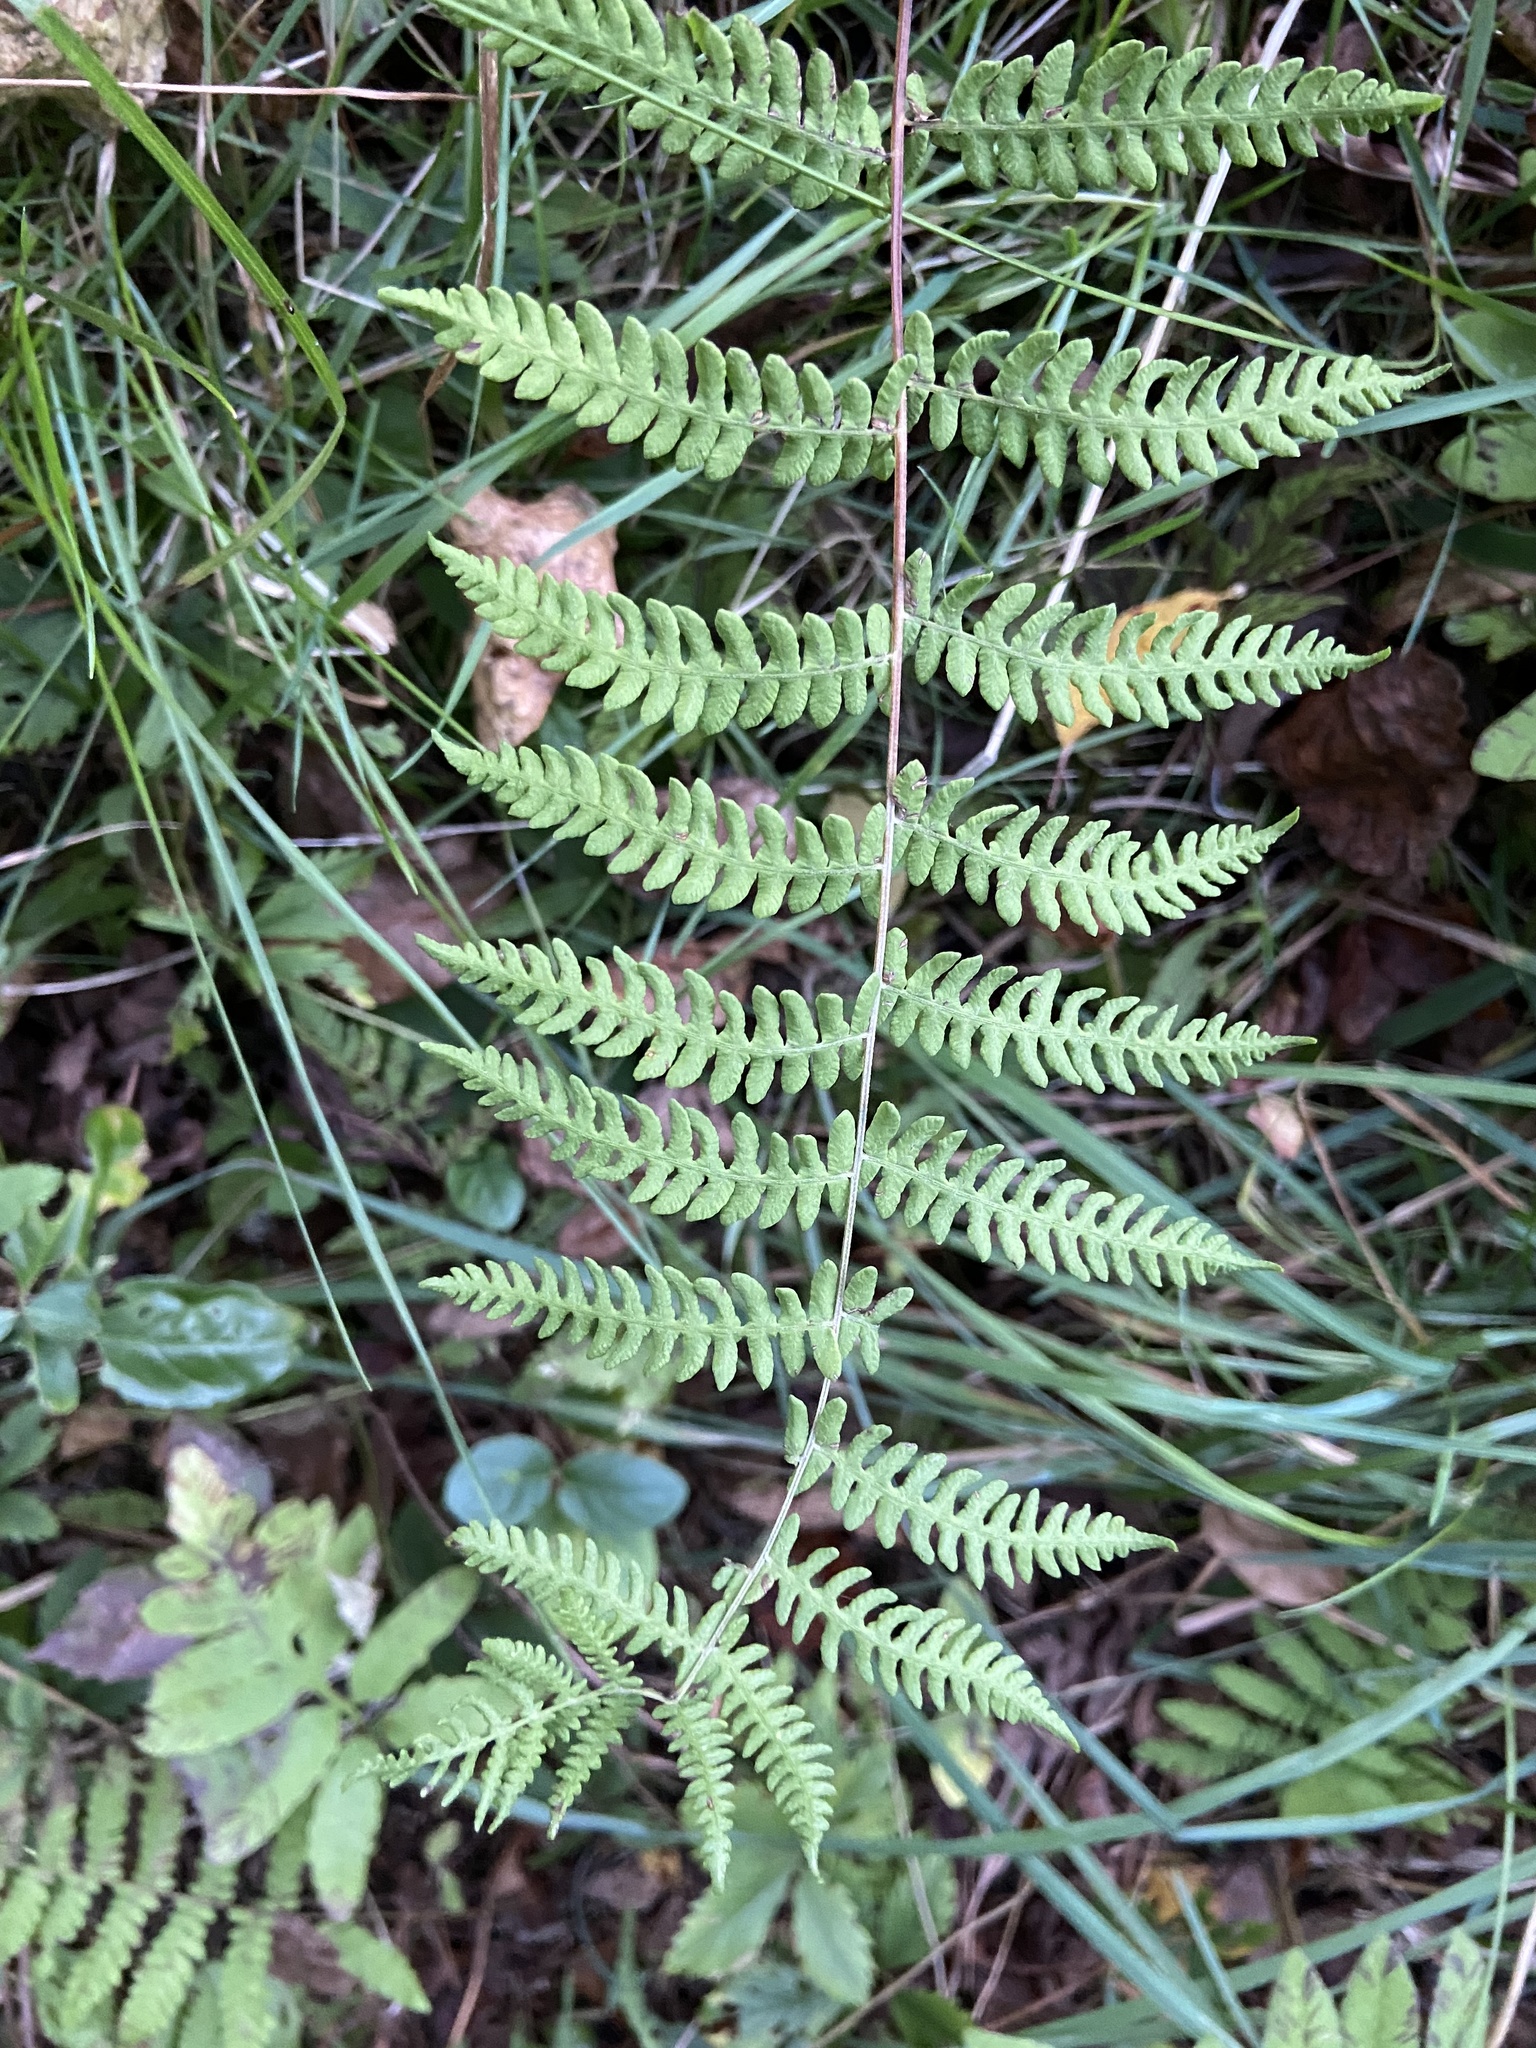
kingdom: Plantae
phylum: Tracheophyta
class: Polypodiopsida
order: Polypodiales
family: Thelypteridaceae
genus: Thelypteris
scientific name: Thelypteris palustris
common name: Marsh fern
